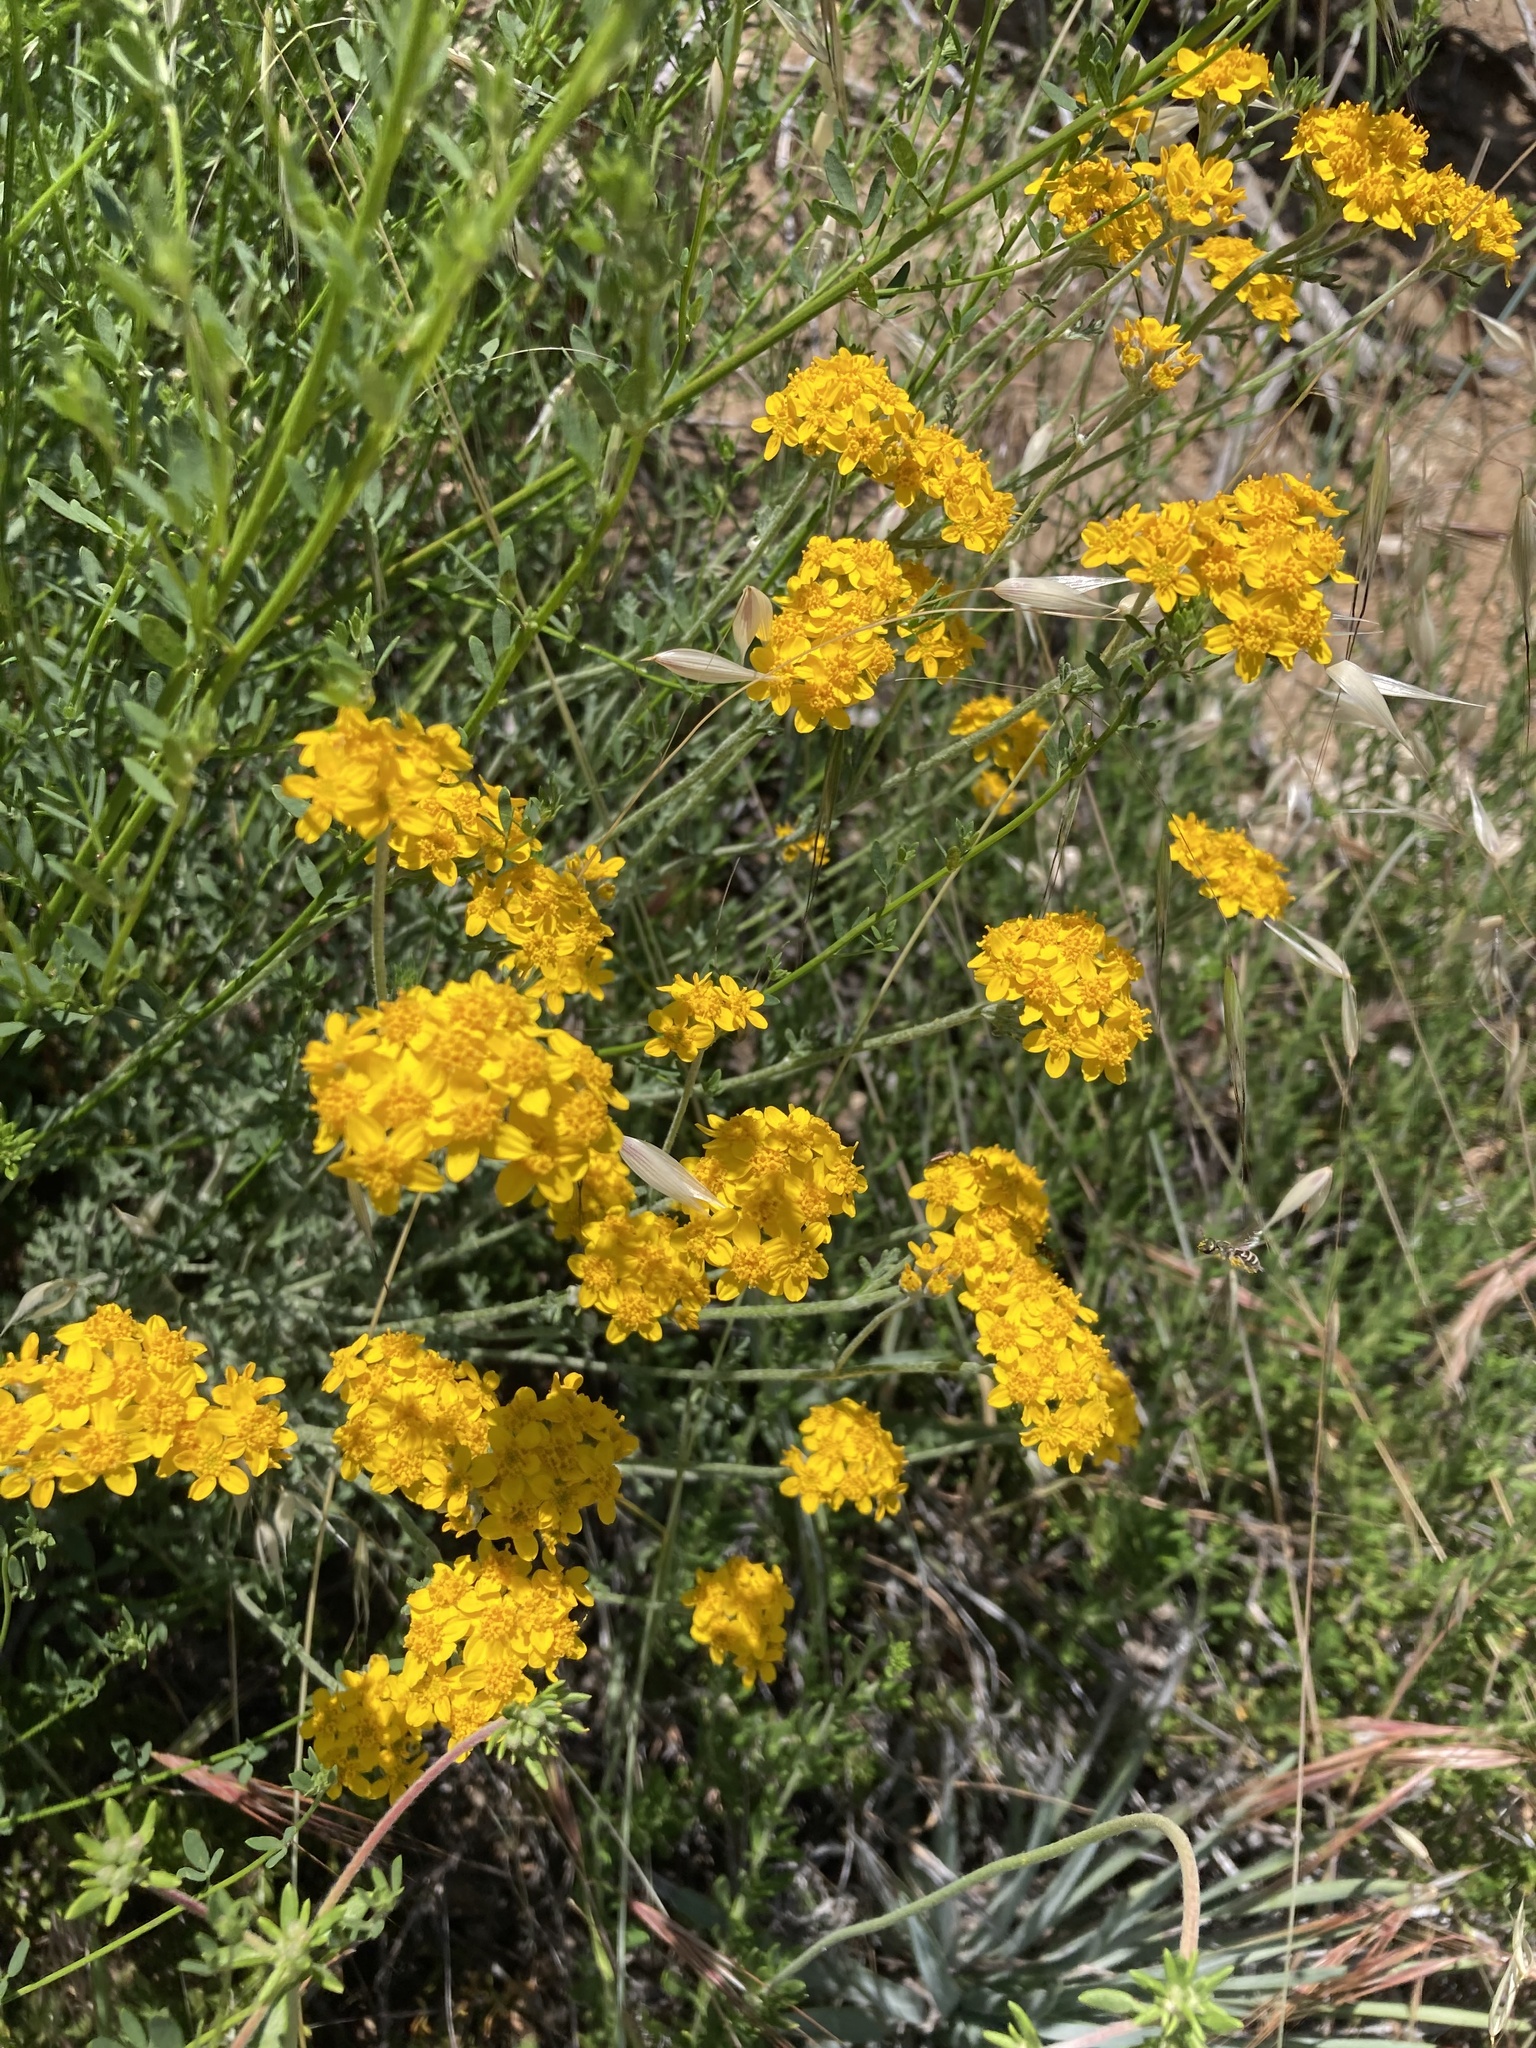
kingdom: Plantae
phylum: Tracheophyta
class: Magnoliopsida
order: Asterales
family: Asteraceae
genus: Eriophyllum
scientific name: Eriophyllum confertiflorum
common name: Golden-yarrow
